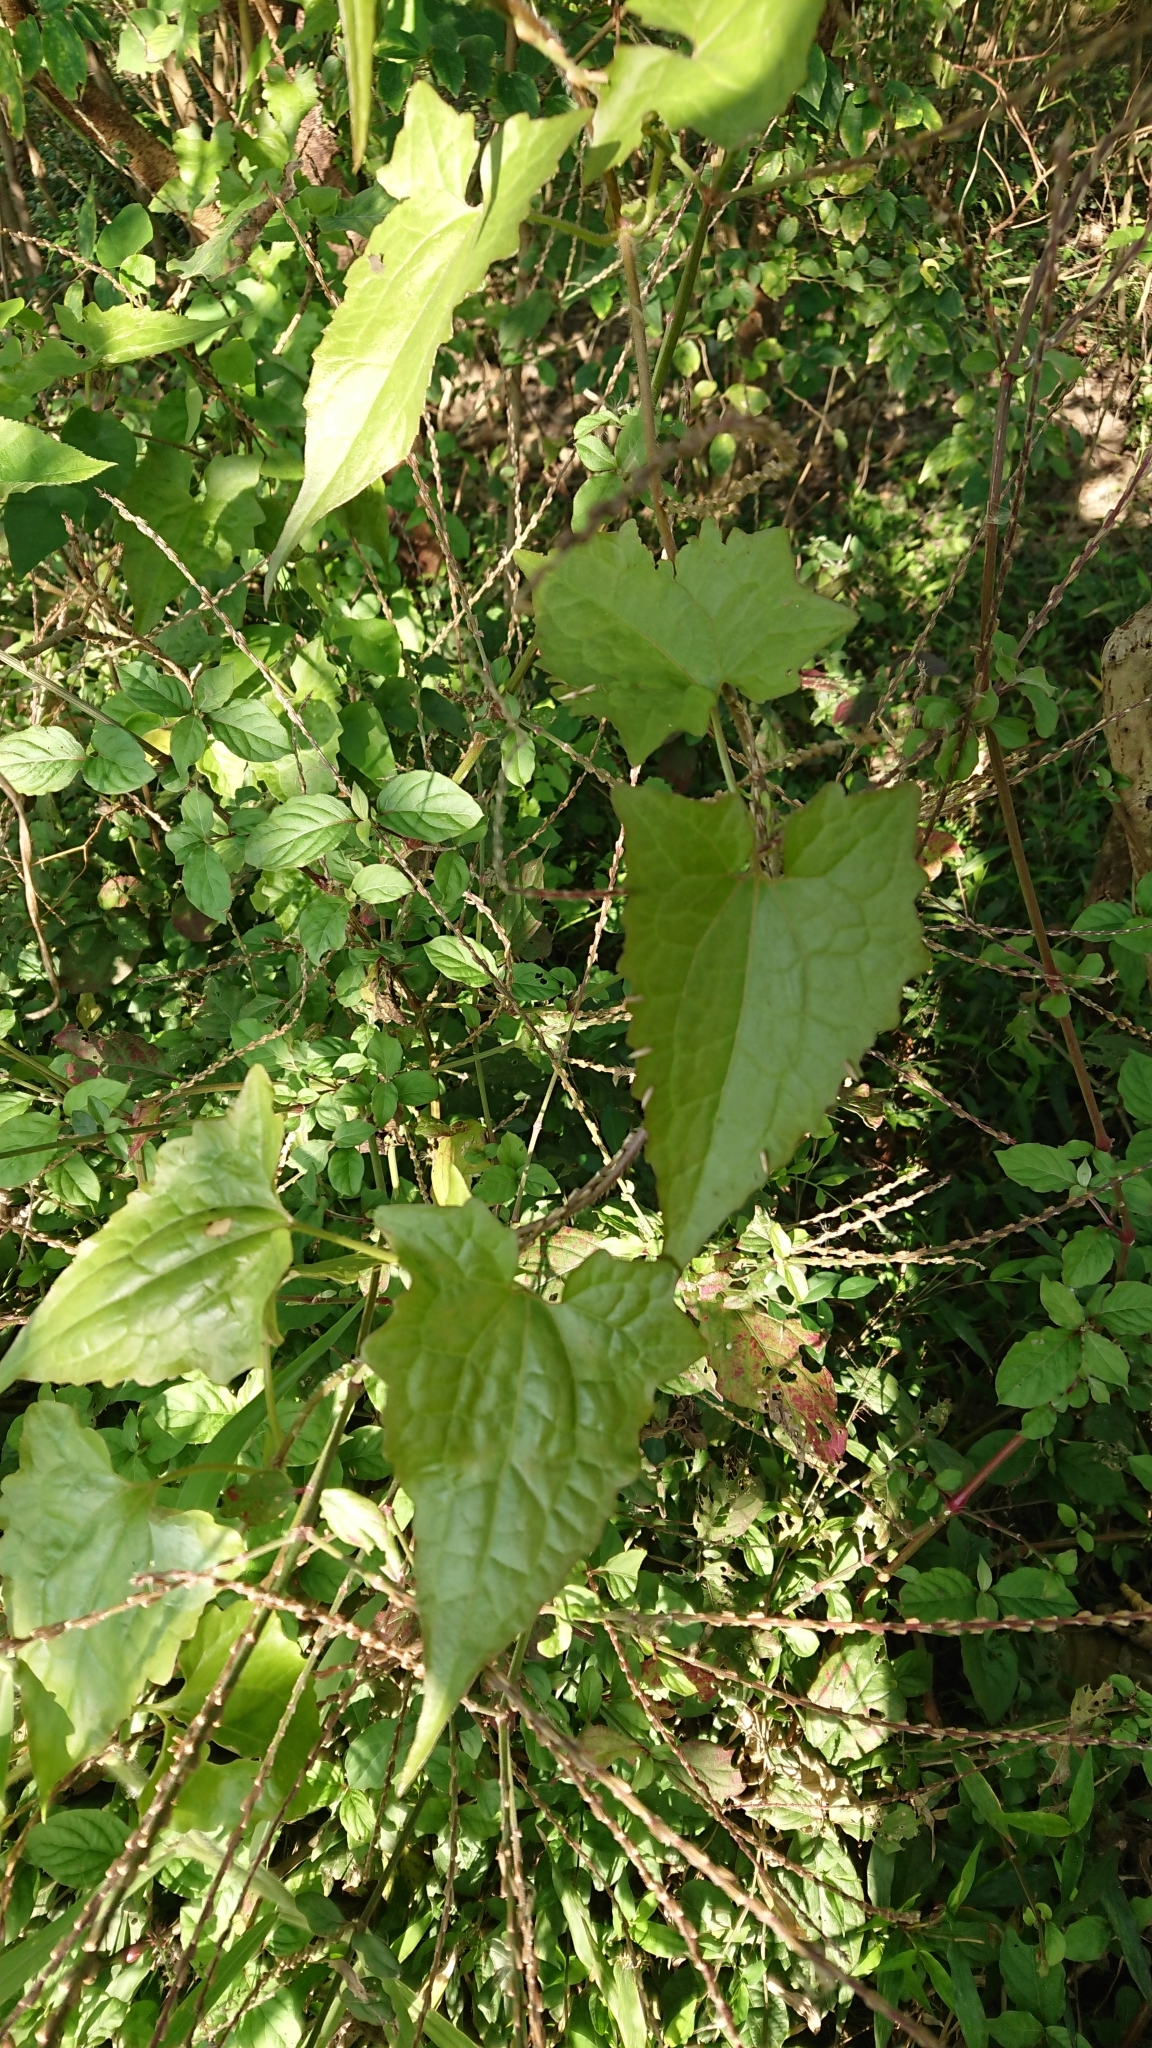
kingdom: Plantae
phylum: Tracheophyta
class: Magnoliopsida
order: Asterales
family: Asteraceae
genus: Mikania
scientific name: Mikania micrantha
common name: Mile-a-minute
